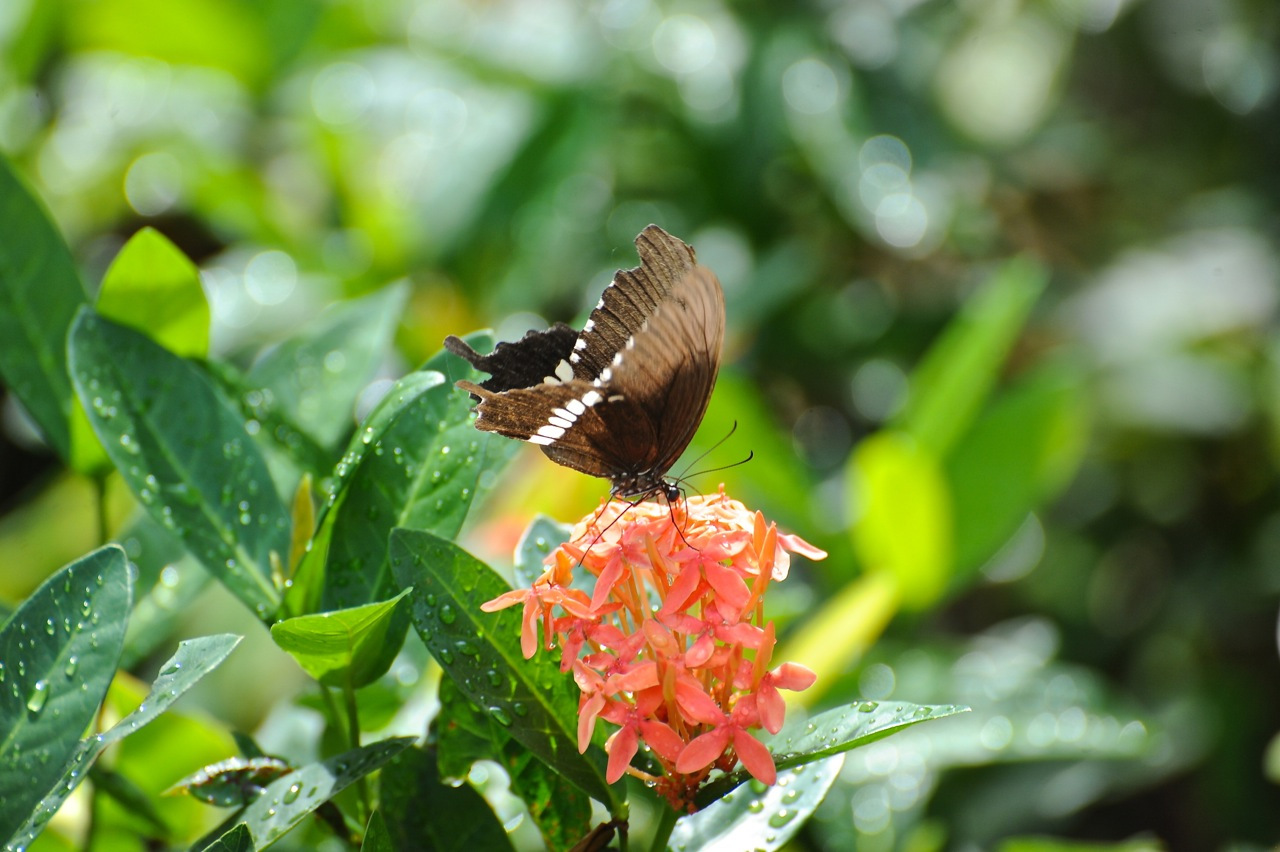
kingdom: Animalia
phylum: Arthropoda
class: Insecta
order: Lepidoptera
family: Papilionidae
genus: Papilio
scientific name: Papilio polytes
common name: Common mormon
